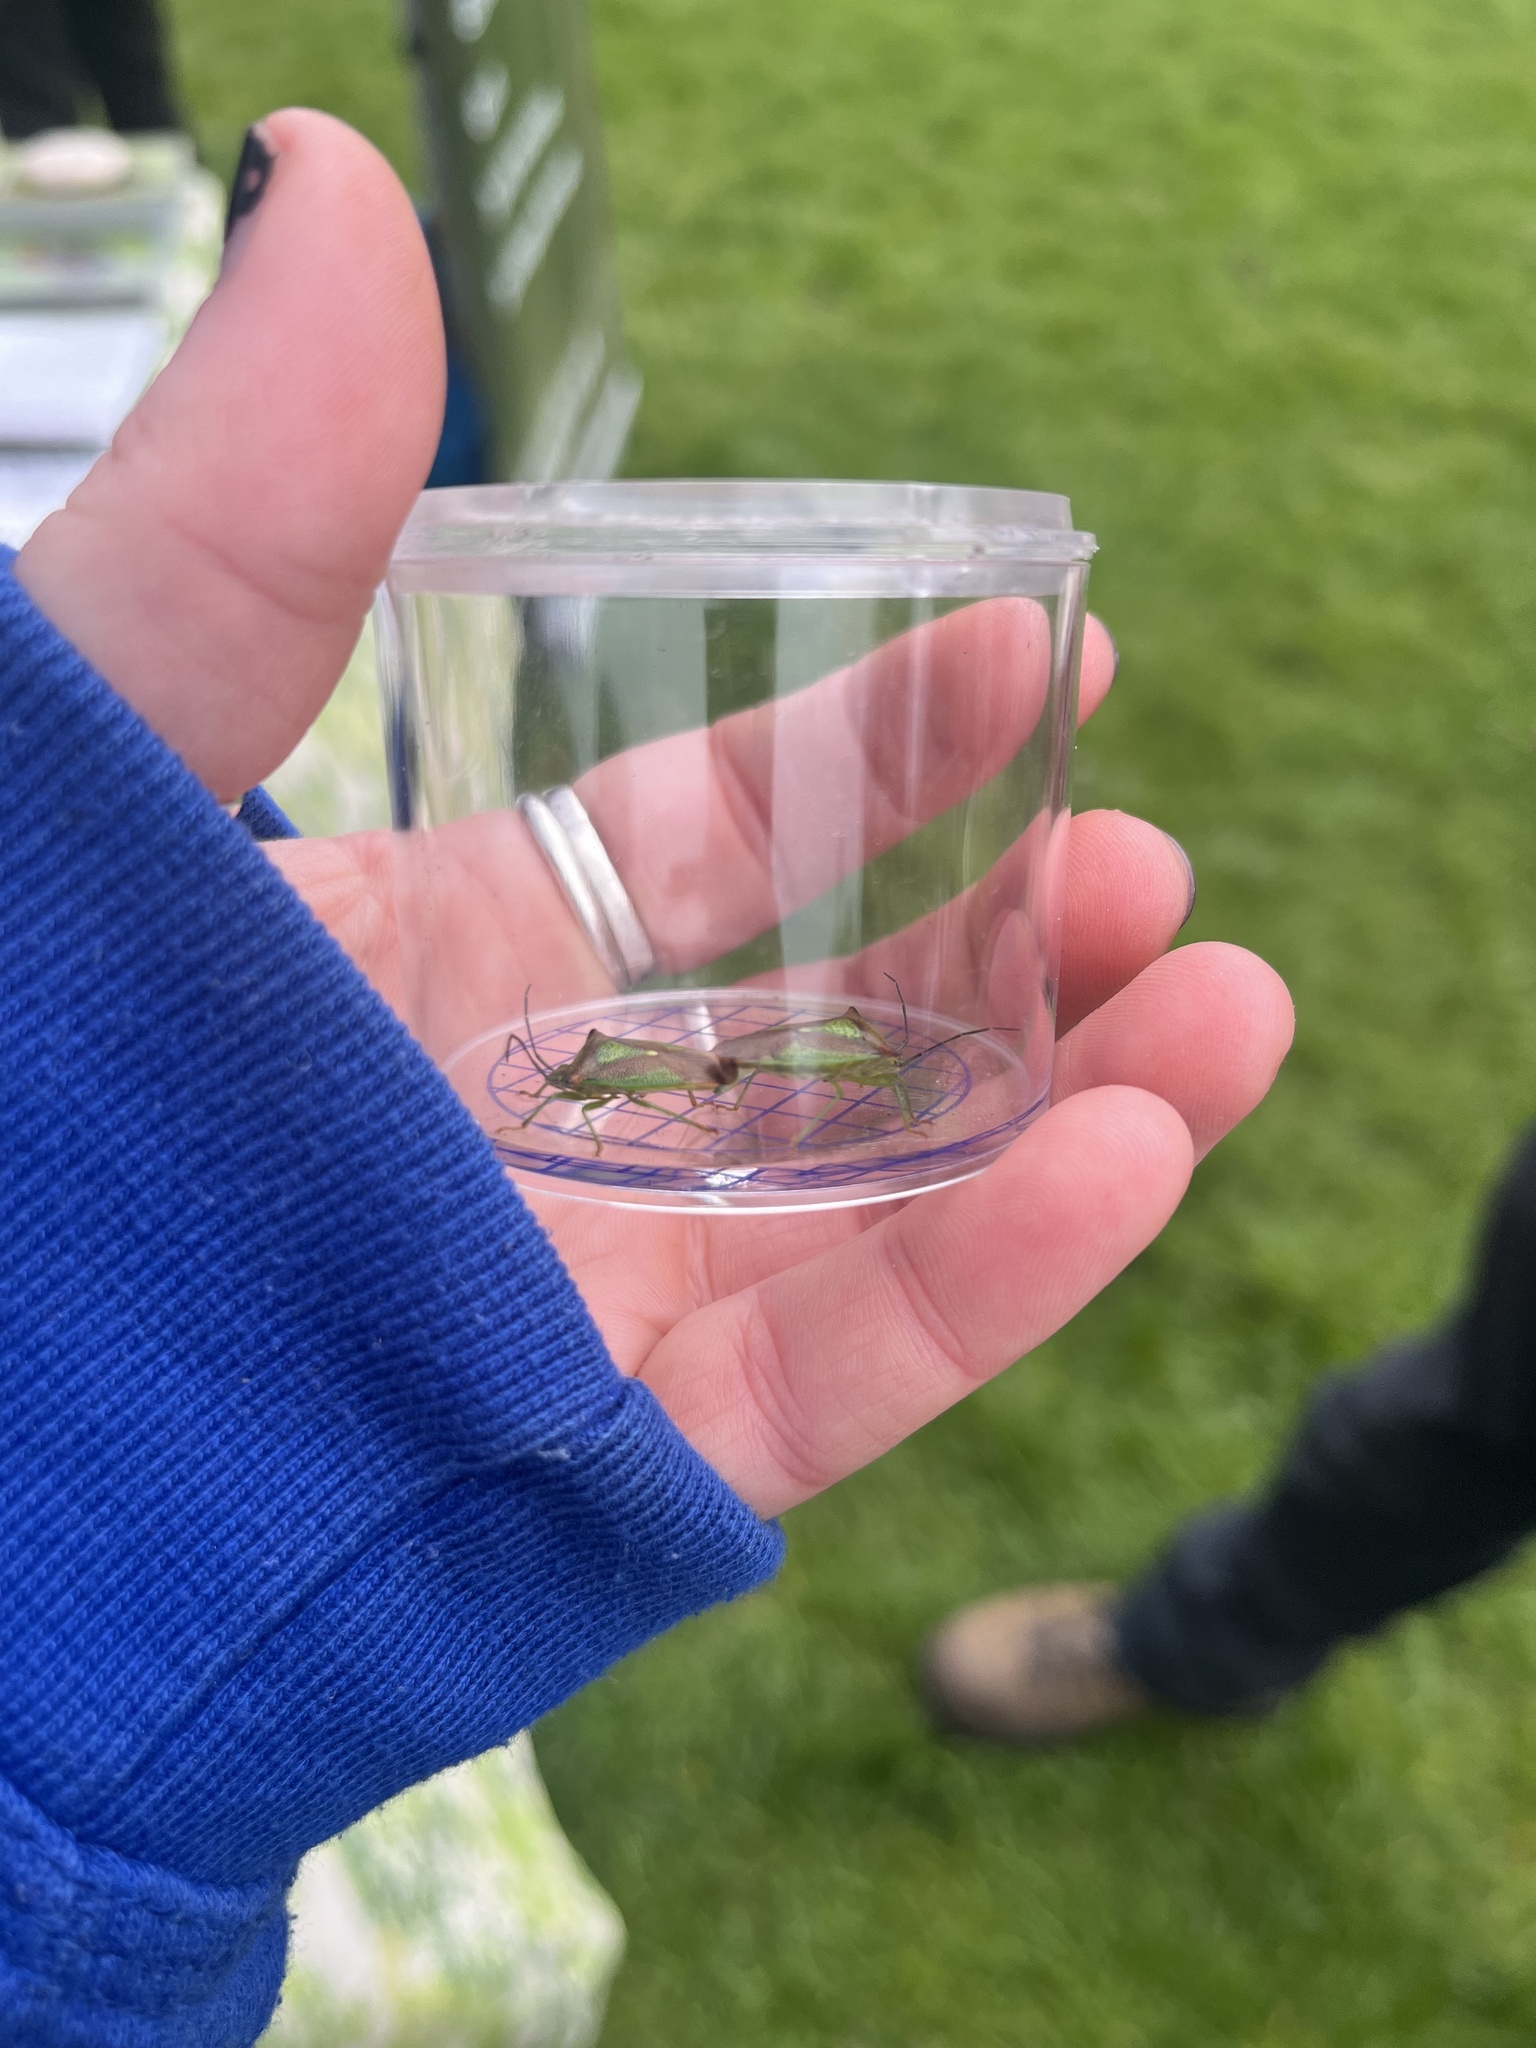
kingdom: Animalia
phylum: Arthropoda
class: Insecta
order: Hemiptera
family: Acanthosomatidae
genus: Acanthosoma
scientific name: Acanthosoma haemorrhoidale
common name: Hawthorn shieldbug
